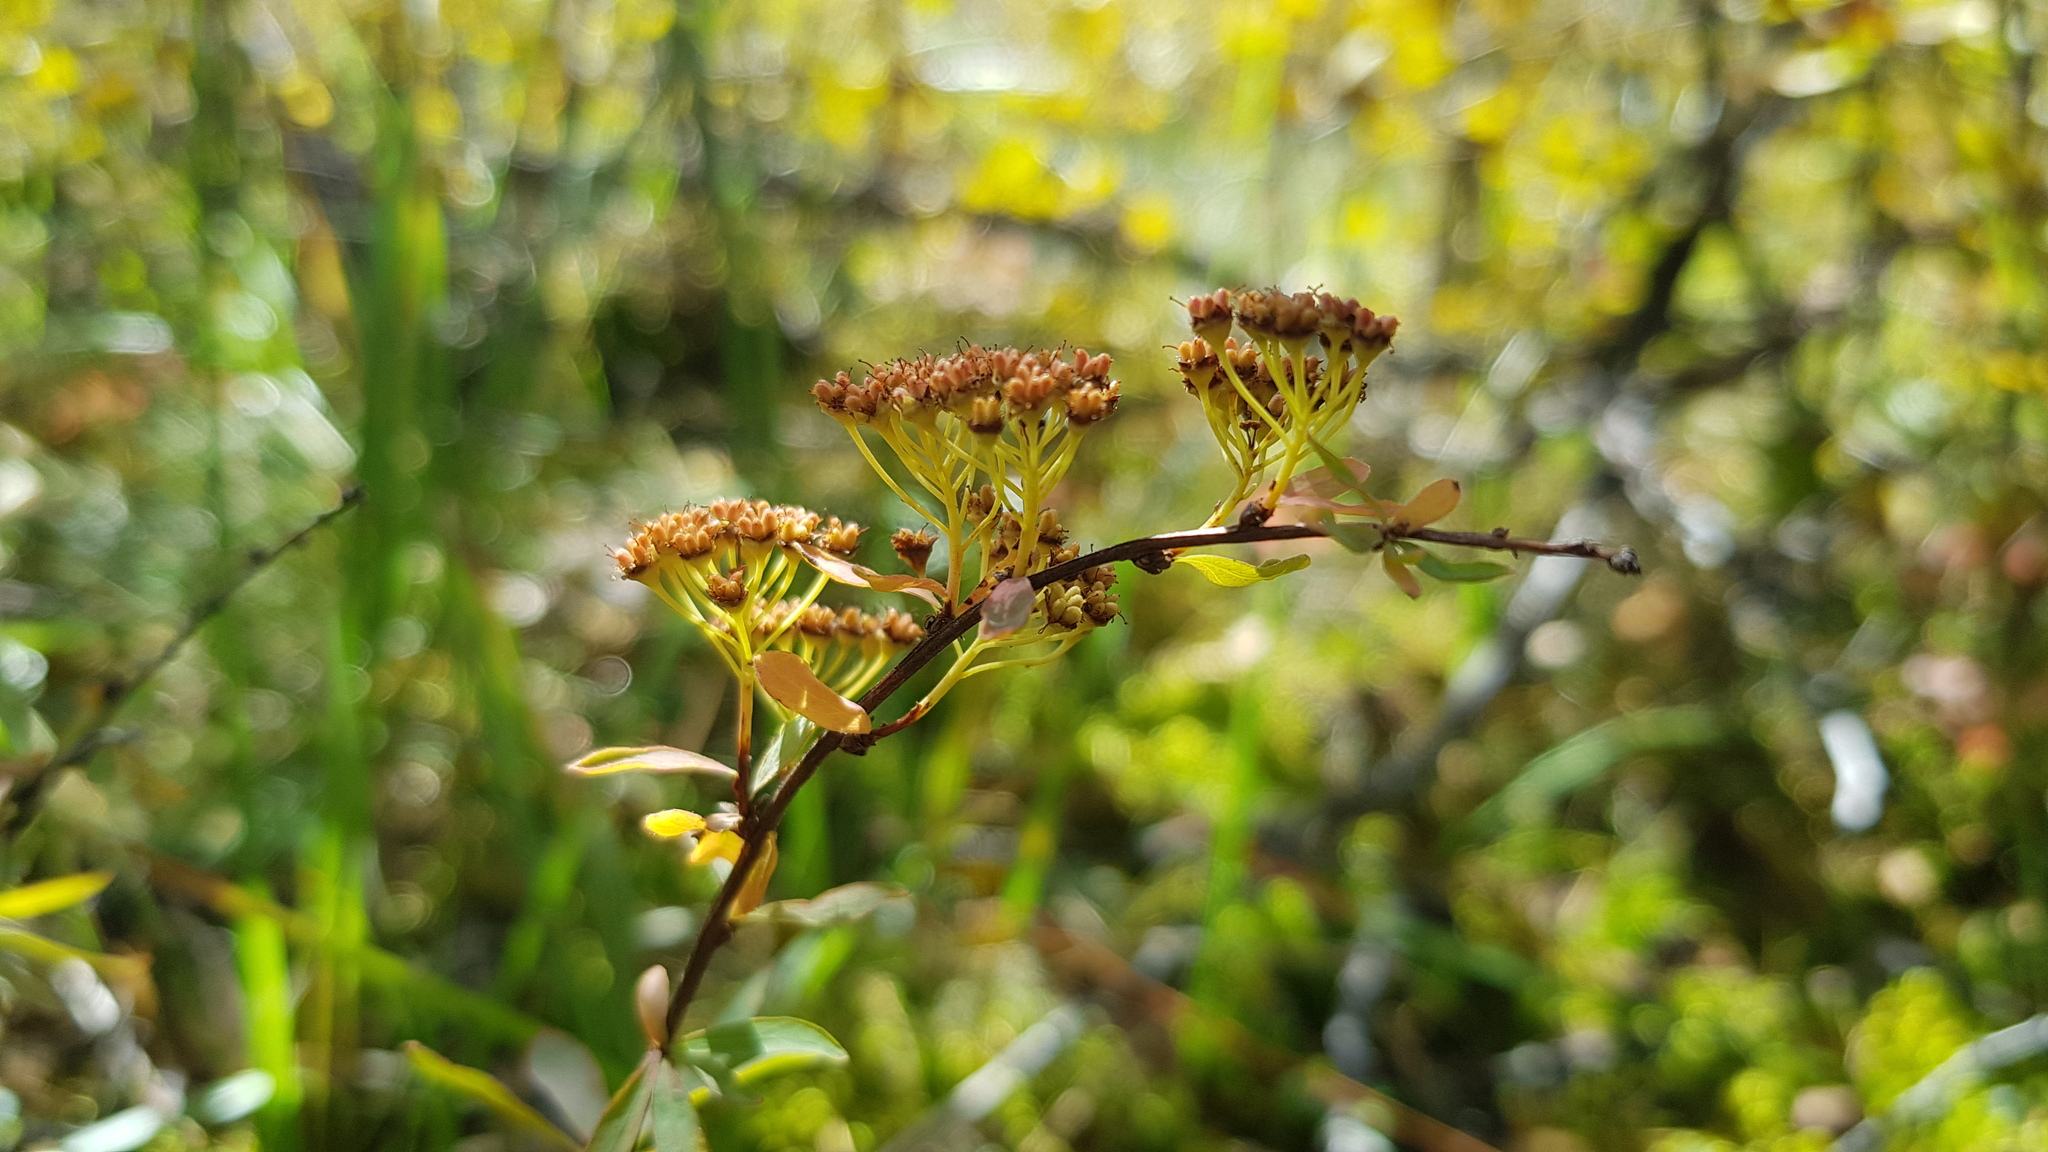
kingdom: Plantae
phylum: Tracheophyta
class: Magnoliopsida
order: Rosales
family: Rosaceae
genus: Spiraea
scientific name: Spiraea alpina
